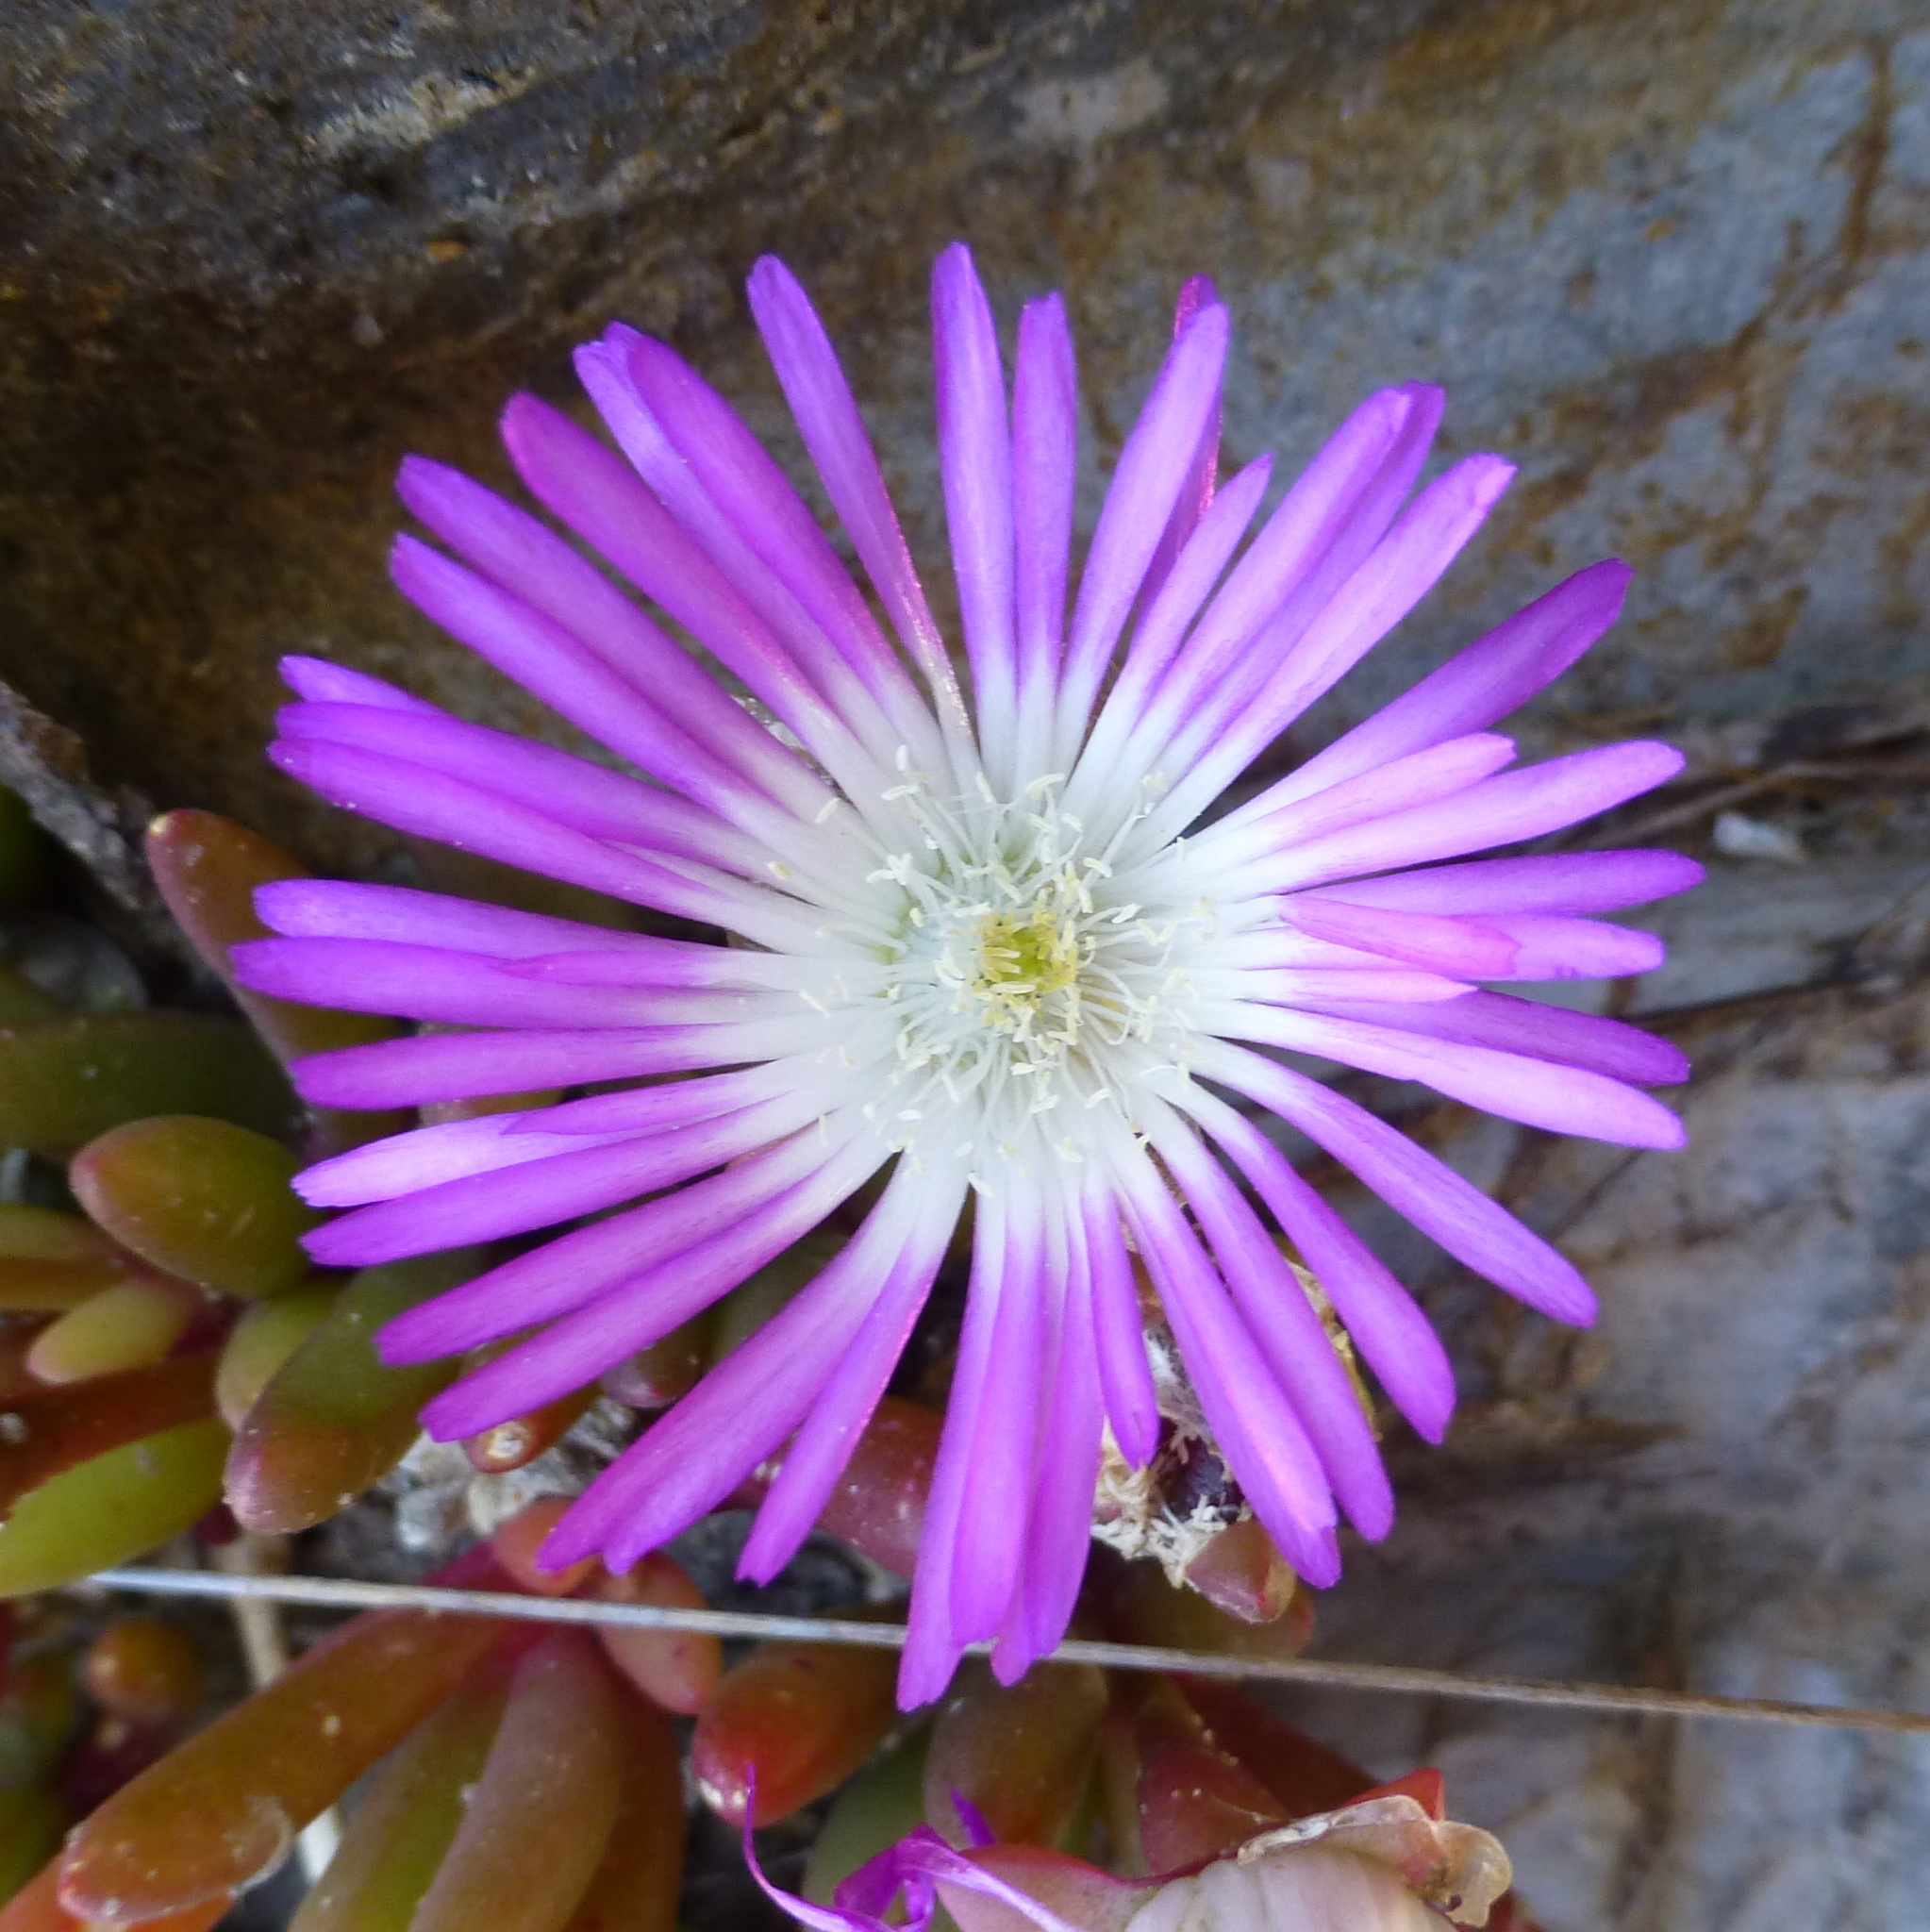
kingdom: Plantae
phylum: Tracheophyta
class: Magnoliopsida
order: Caryophyllales
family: Aizoaceae
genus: Disphyma
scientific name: Disphyma clavellatum
